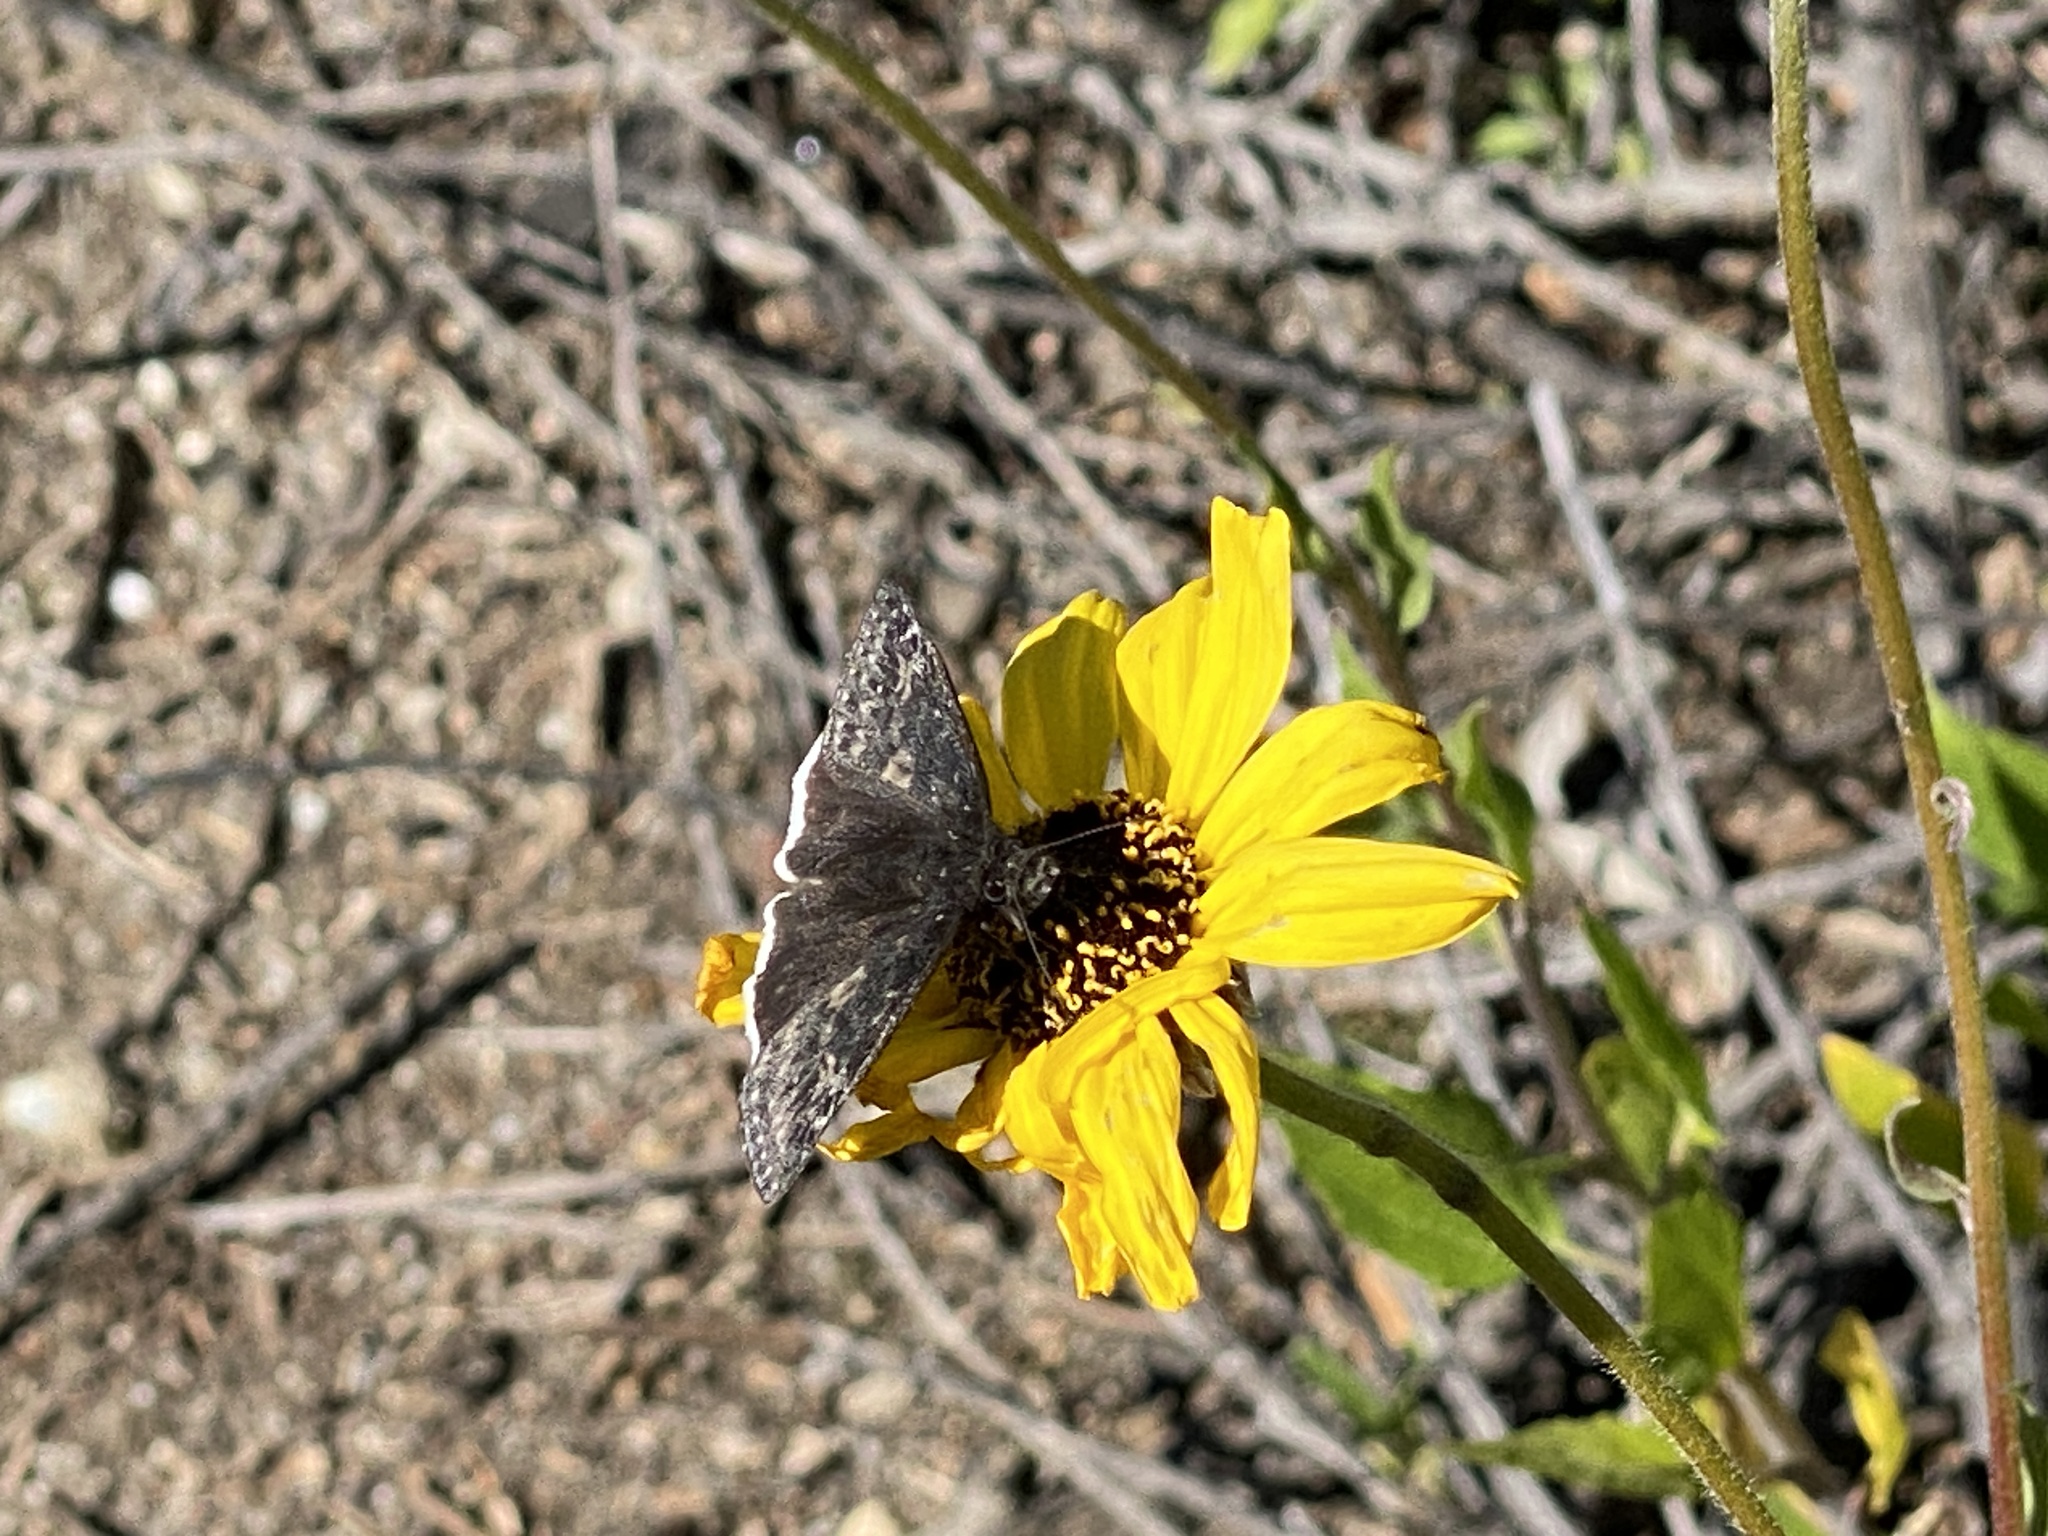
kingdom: Animalia
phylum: Arthropoda
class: Insecta
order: Lepidoptera
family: Hesperiidae
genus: Erynnis
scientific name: Erynnis funeralis
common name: Funereal duskywing
